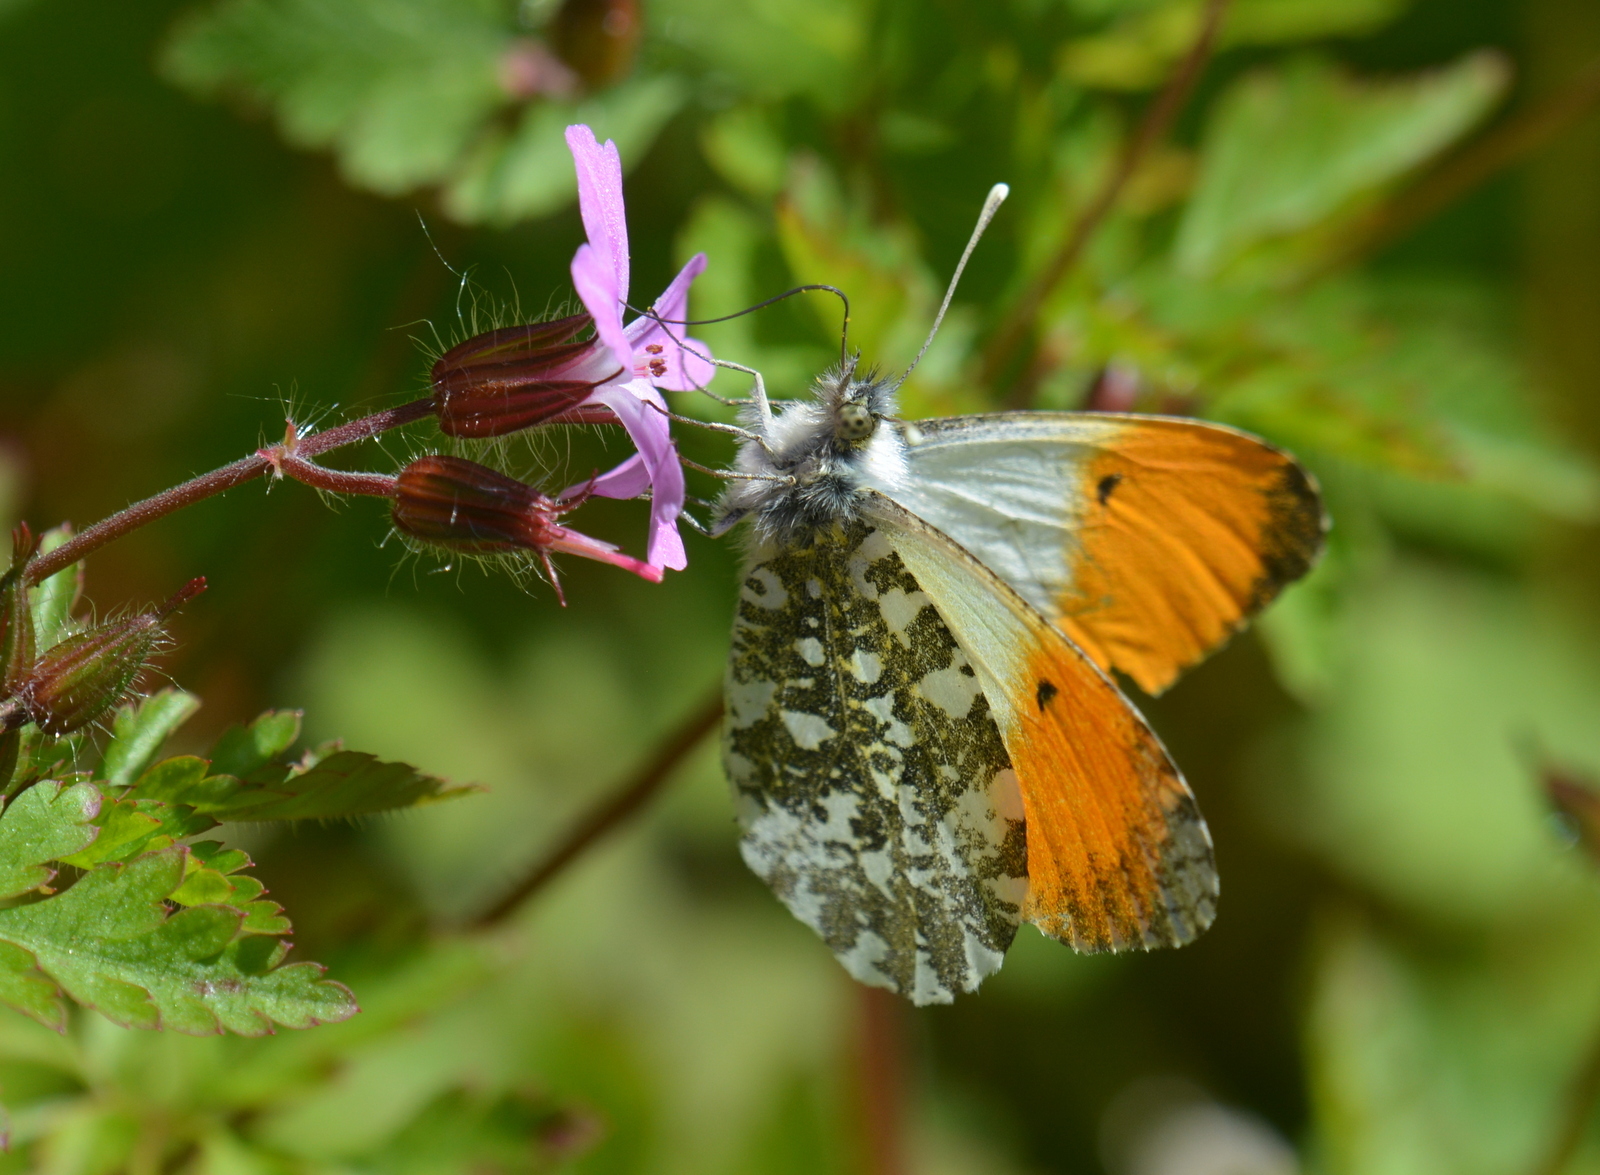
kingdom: Animalia
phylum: Arthropoda
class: Insecta
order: Lepidoptera
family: Pieridae
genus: Anthocharis
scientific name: Anthocharis cardamines
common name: Orange-tip
